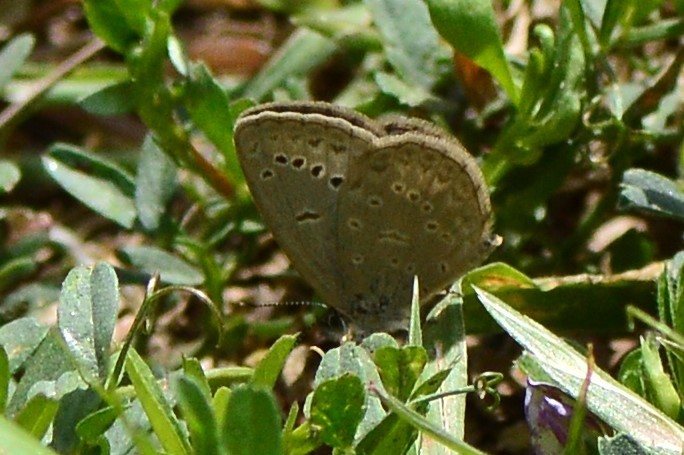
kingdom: Animalia
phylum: Arthropoda
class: Insecta
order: Lepidoptera
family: Lycaenidae
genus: Pseudozizeeria
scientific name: Pseudozizeeria maha
